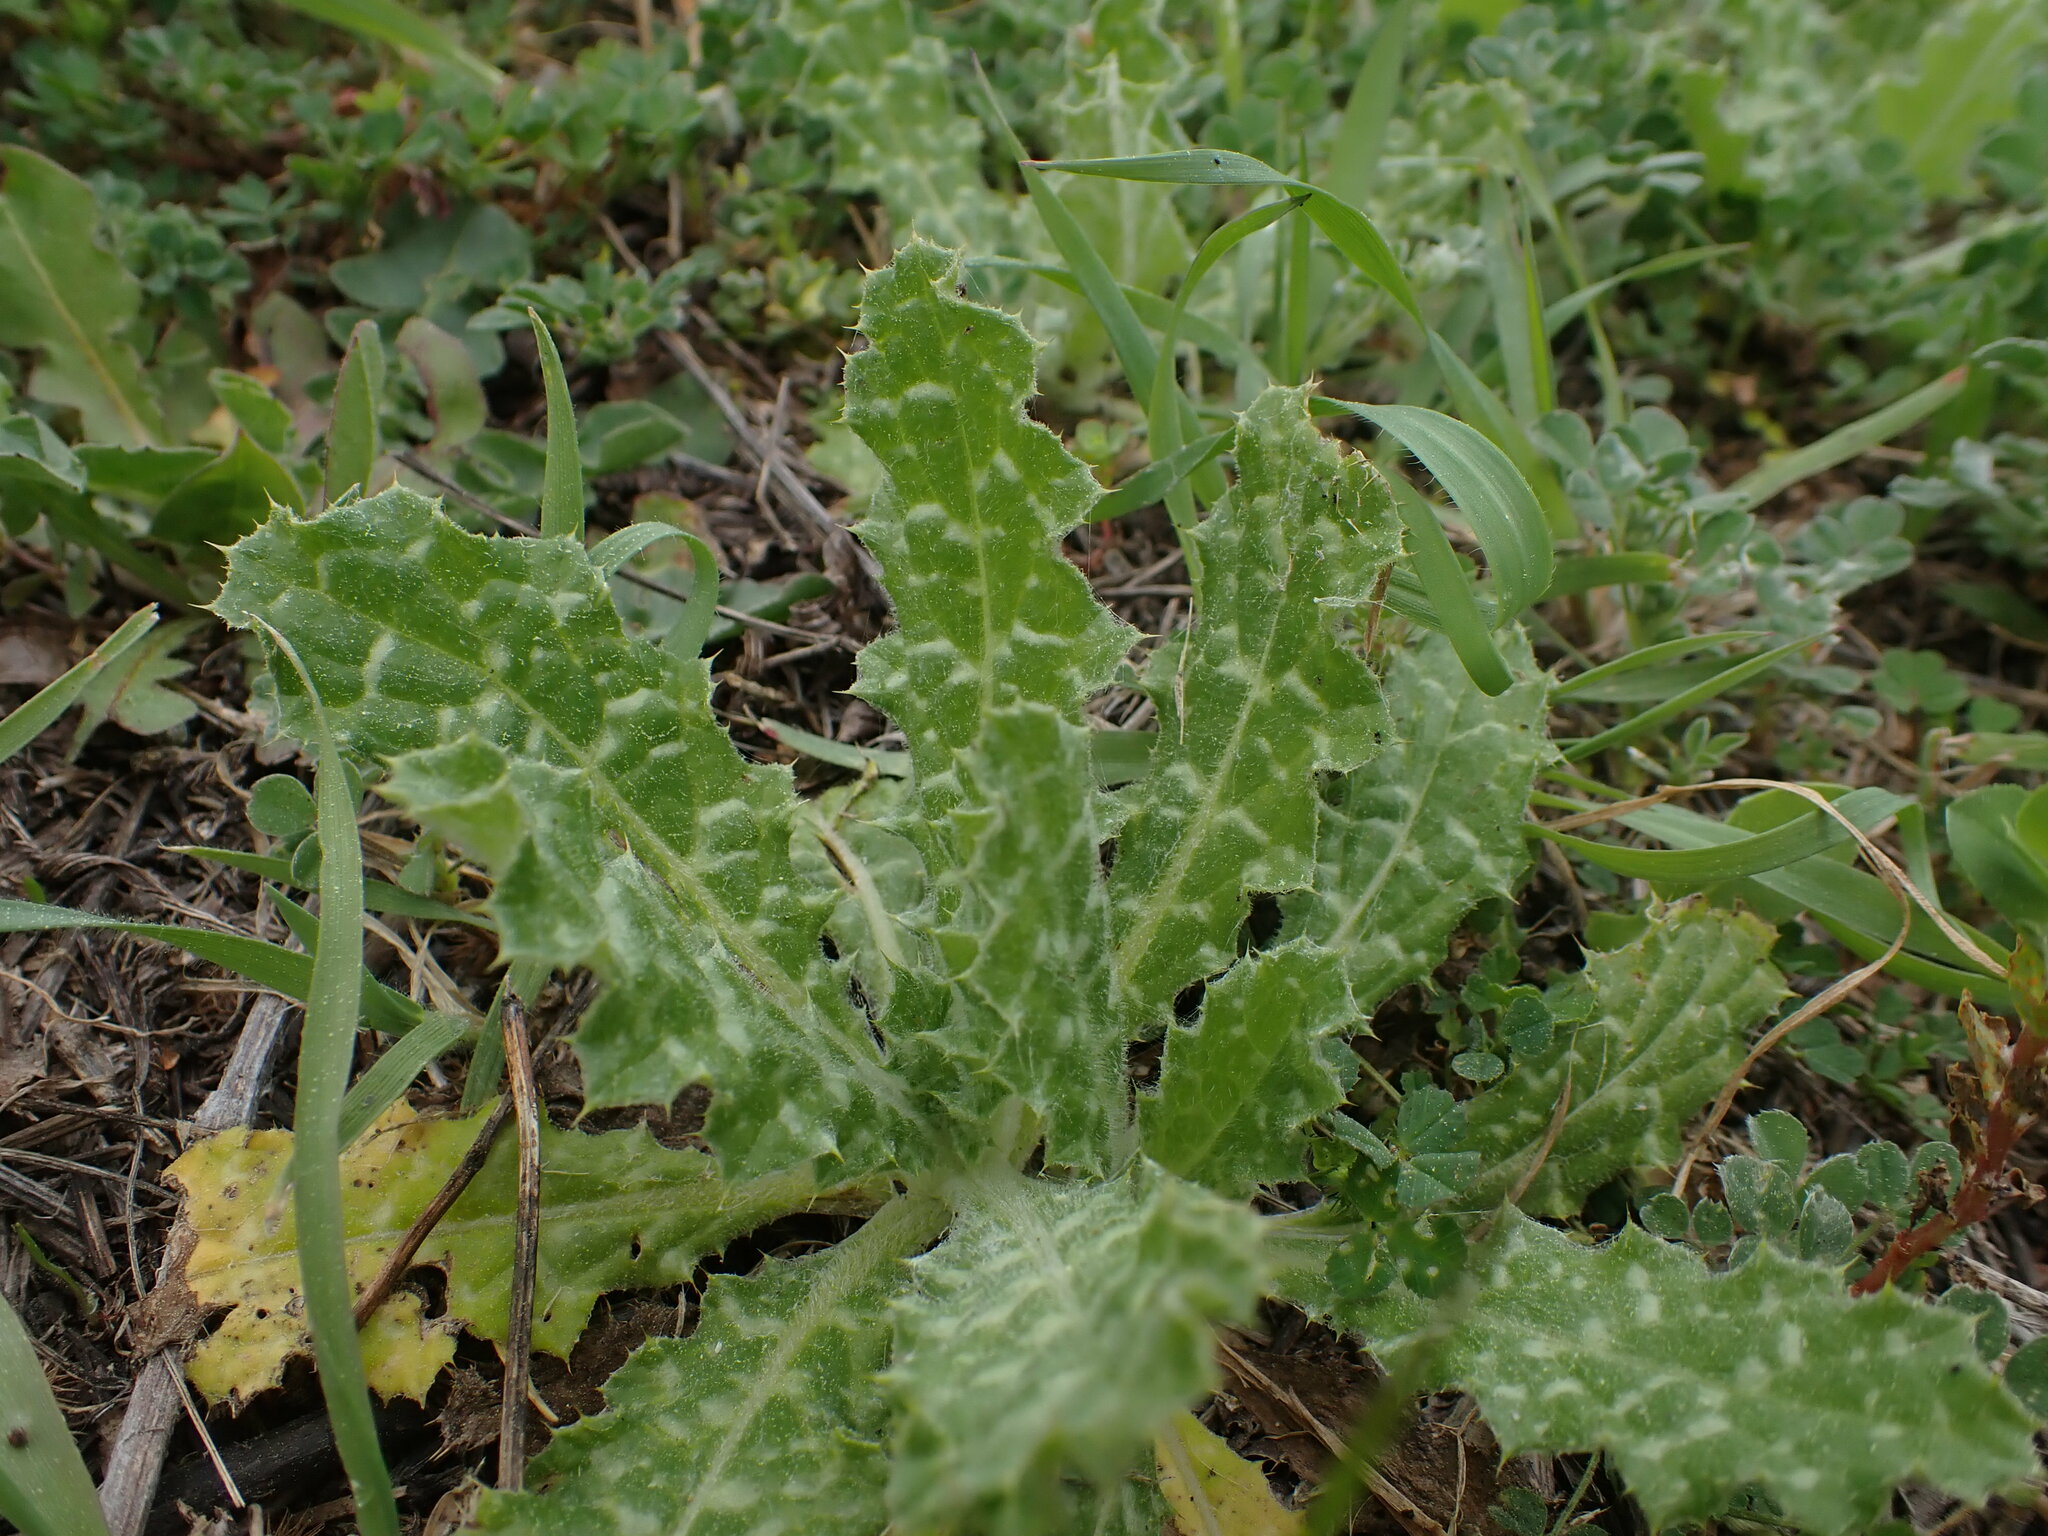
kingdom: Plantae
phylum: Tracheophyta
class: Magnoliopsida
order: Asterales
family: Asteraceae
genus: Tyrimnus
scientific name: Tyrimnus leucographus
